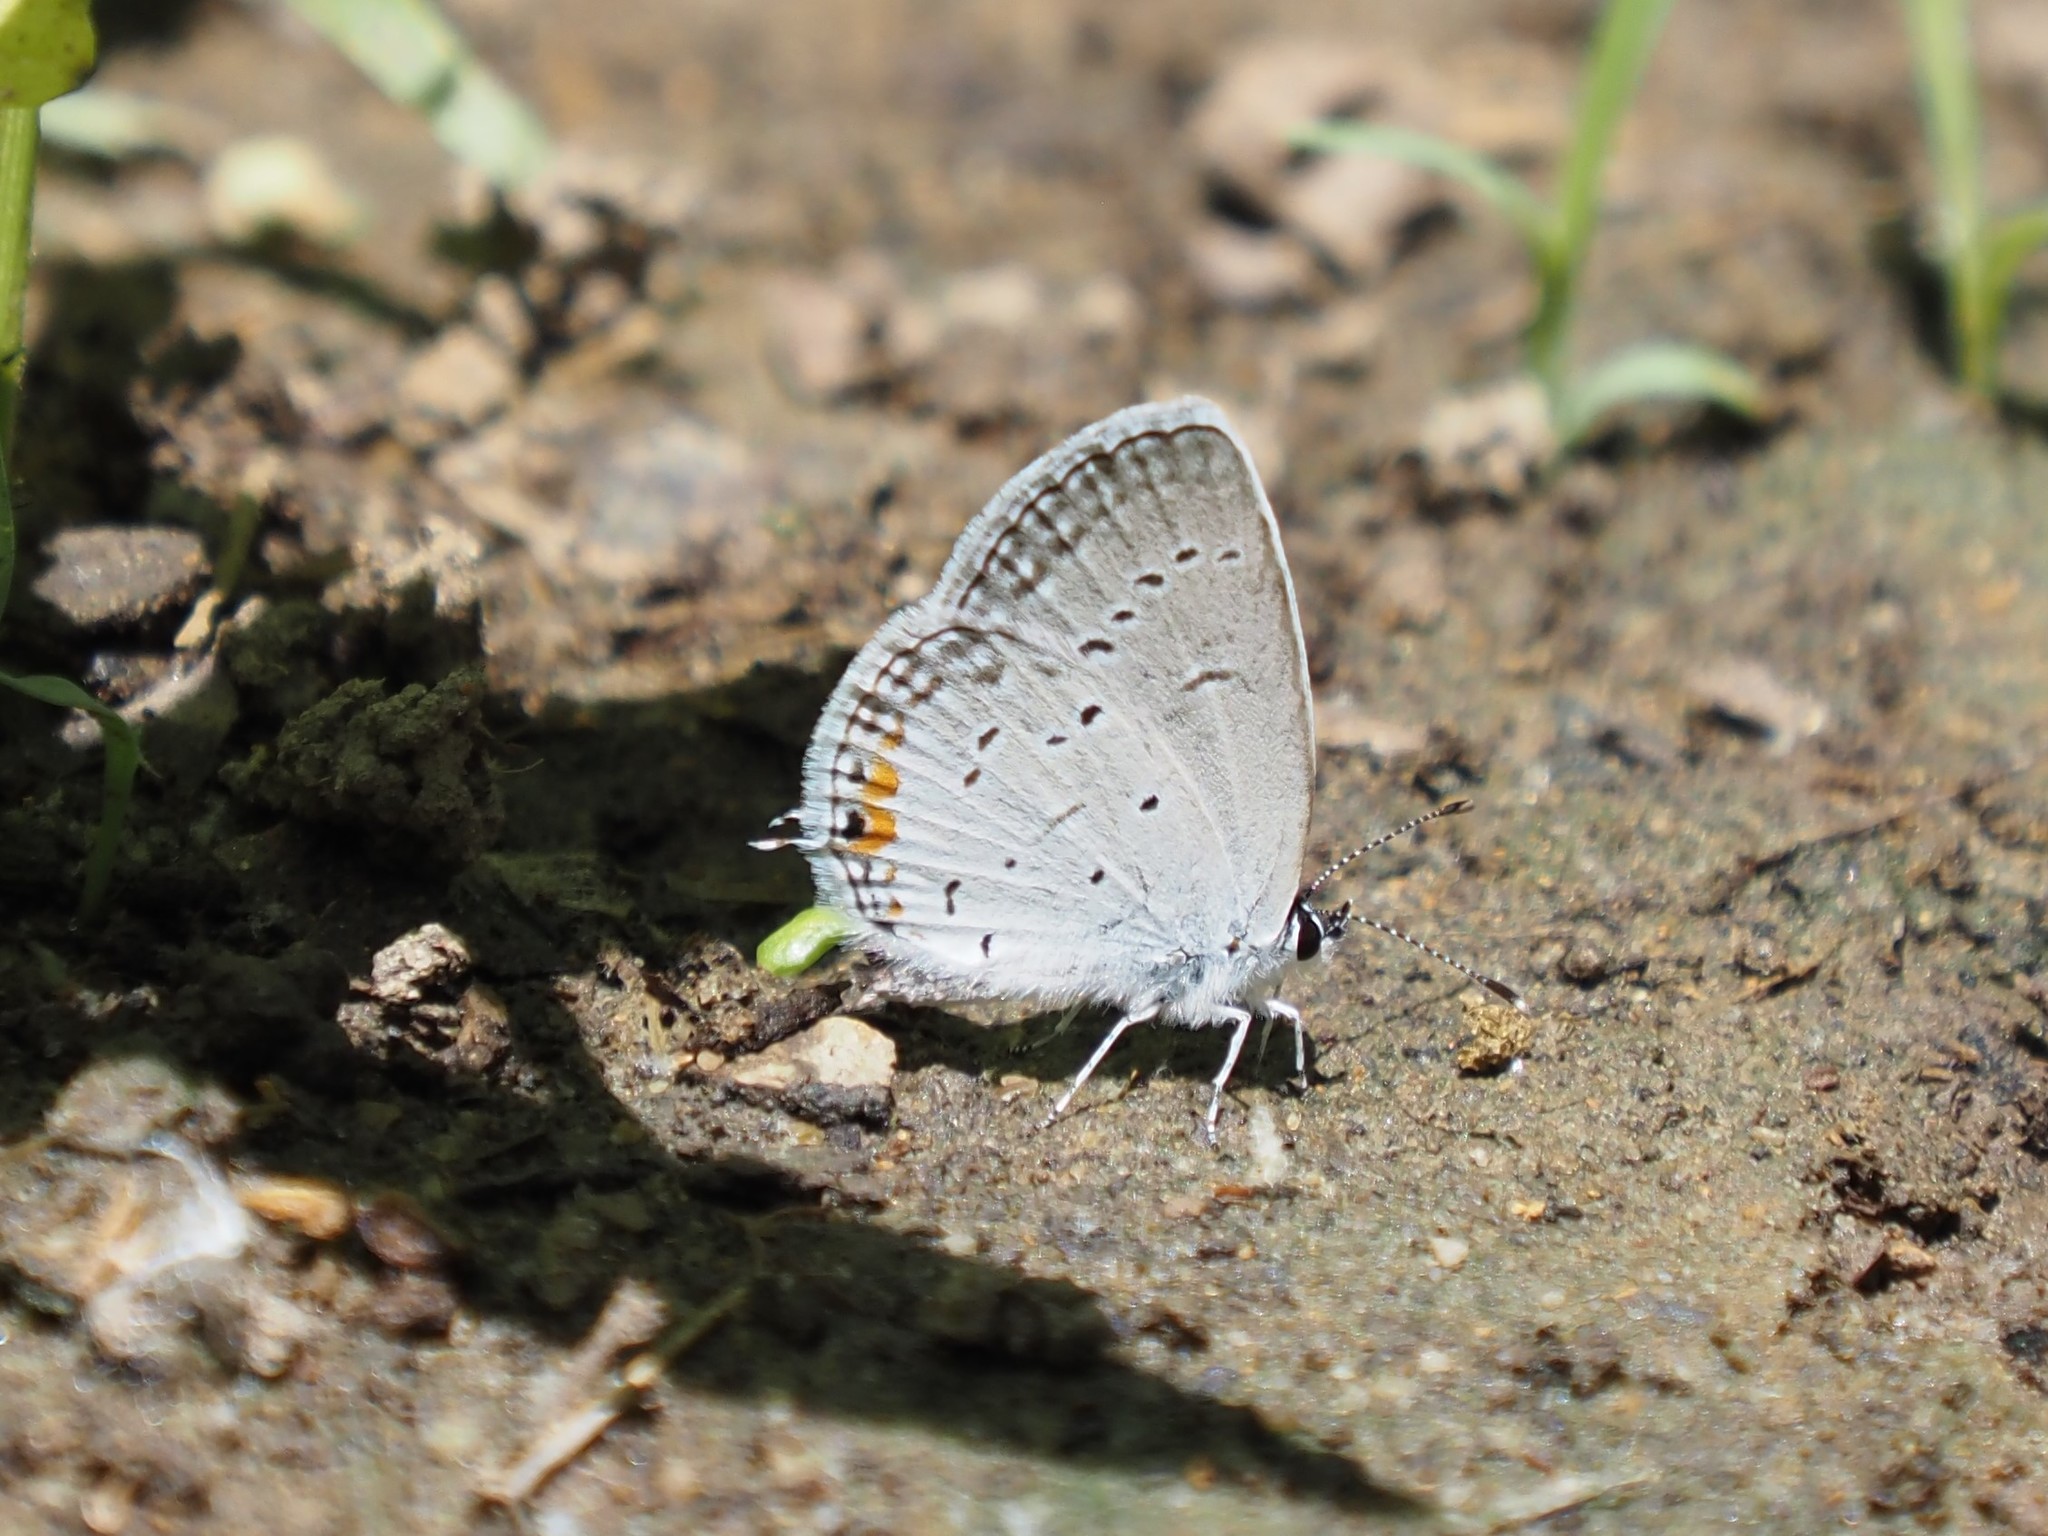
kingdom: Animalia
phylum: Arthropoda
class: Insecta
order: Lepidoptera
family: Lycaenidae
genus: Elkalyce
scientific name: Elkalyce comyntas
